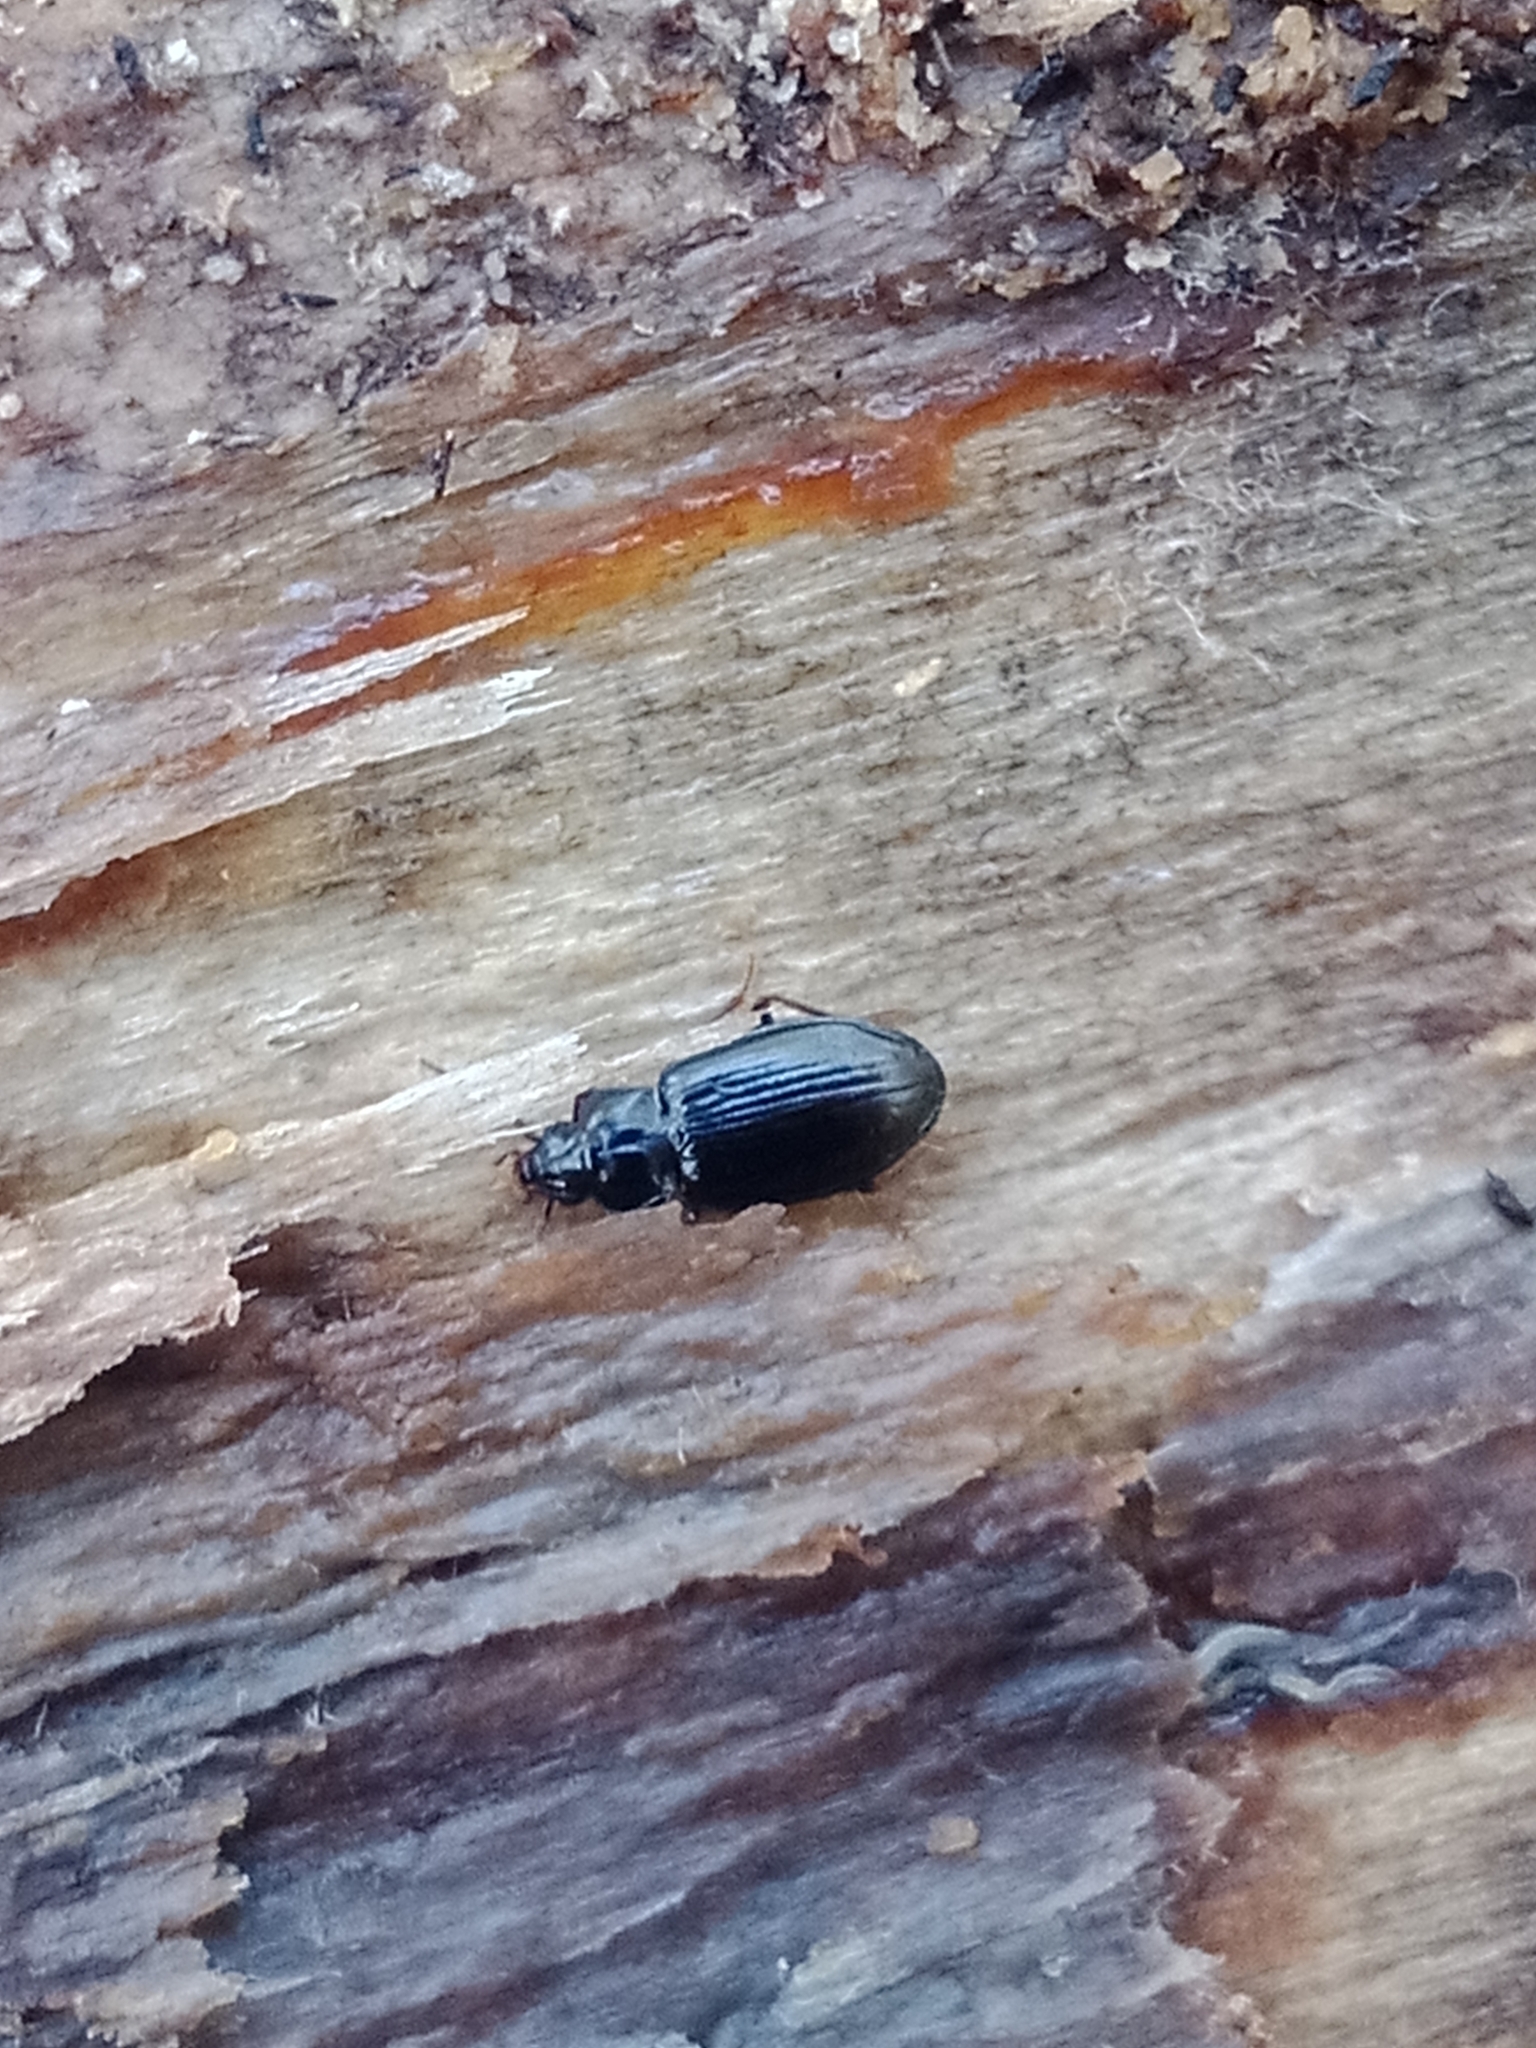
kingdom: Animalia
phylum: Arthropoda
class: Insecta
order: Coleoptera
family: Carabidae
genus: Tachyta
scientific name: Tachyta nana
